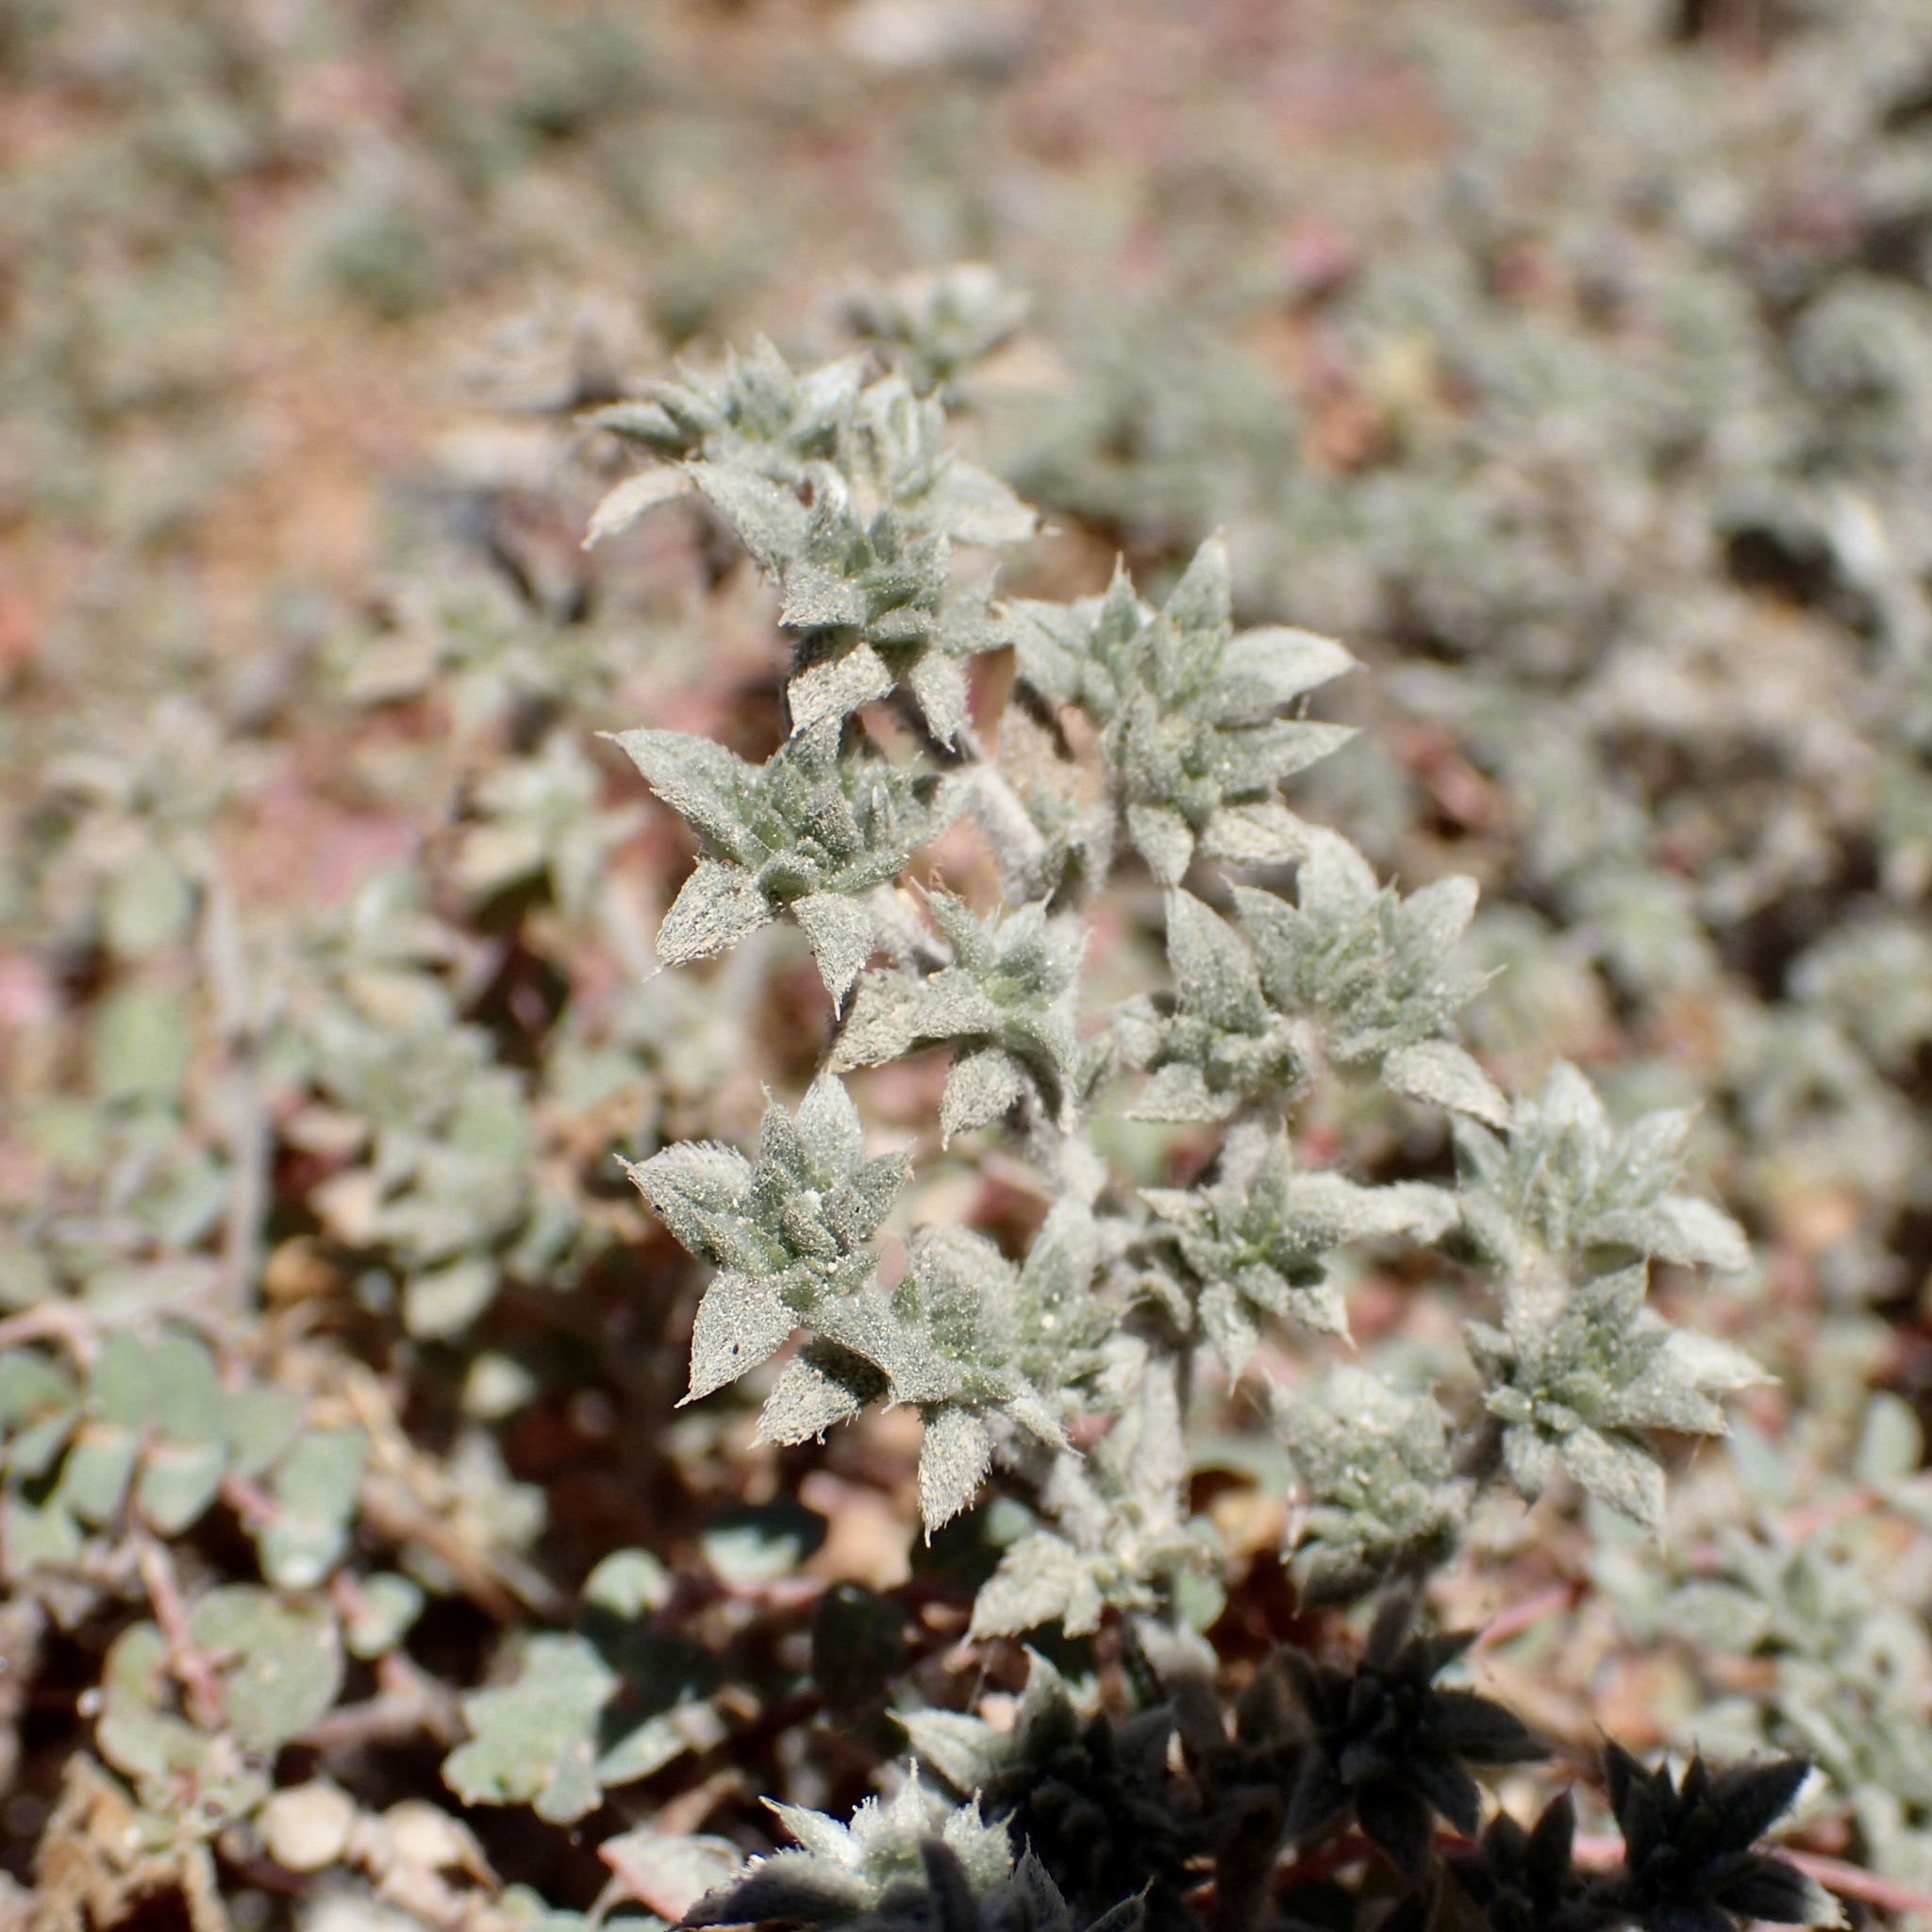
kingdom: Plantae
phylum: Tracheophyta
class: Magnoliopsida
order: Boraginales
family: Ehretiaceae
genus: Tiquilia
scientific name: Tiquilia cuspidata
